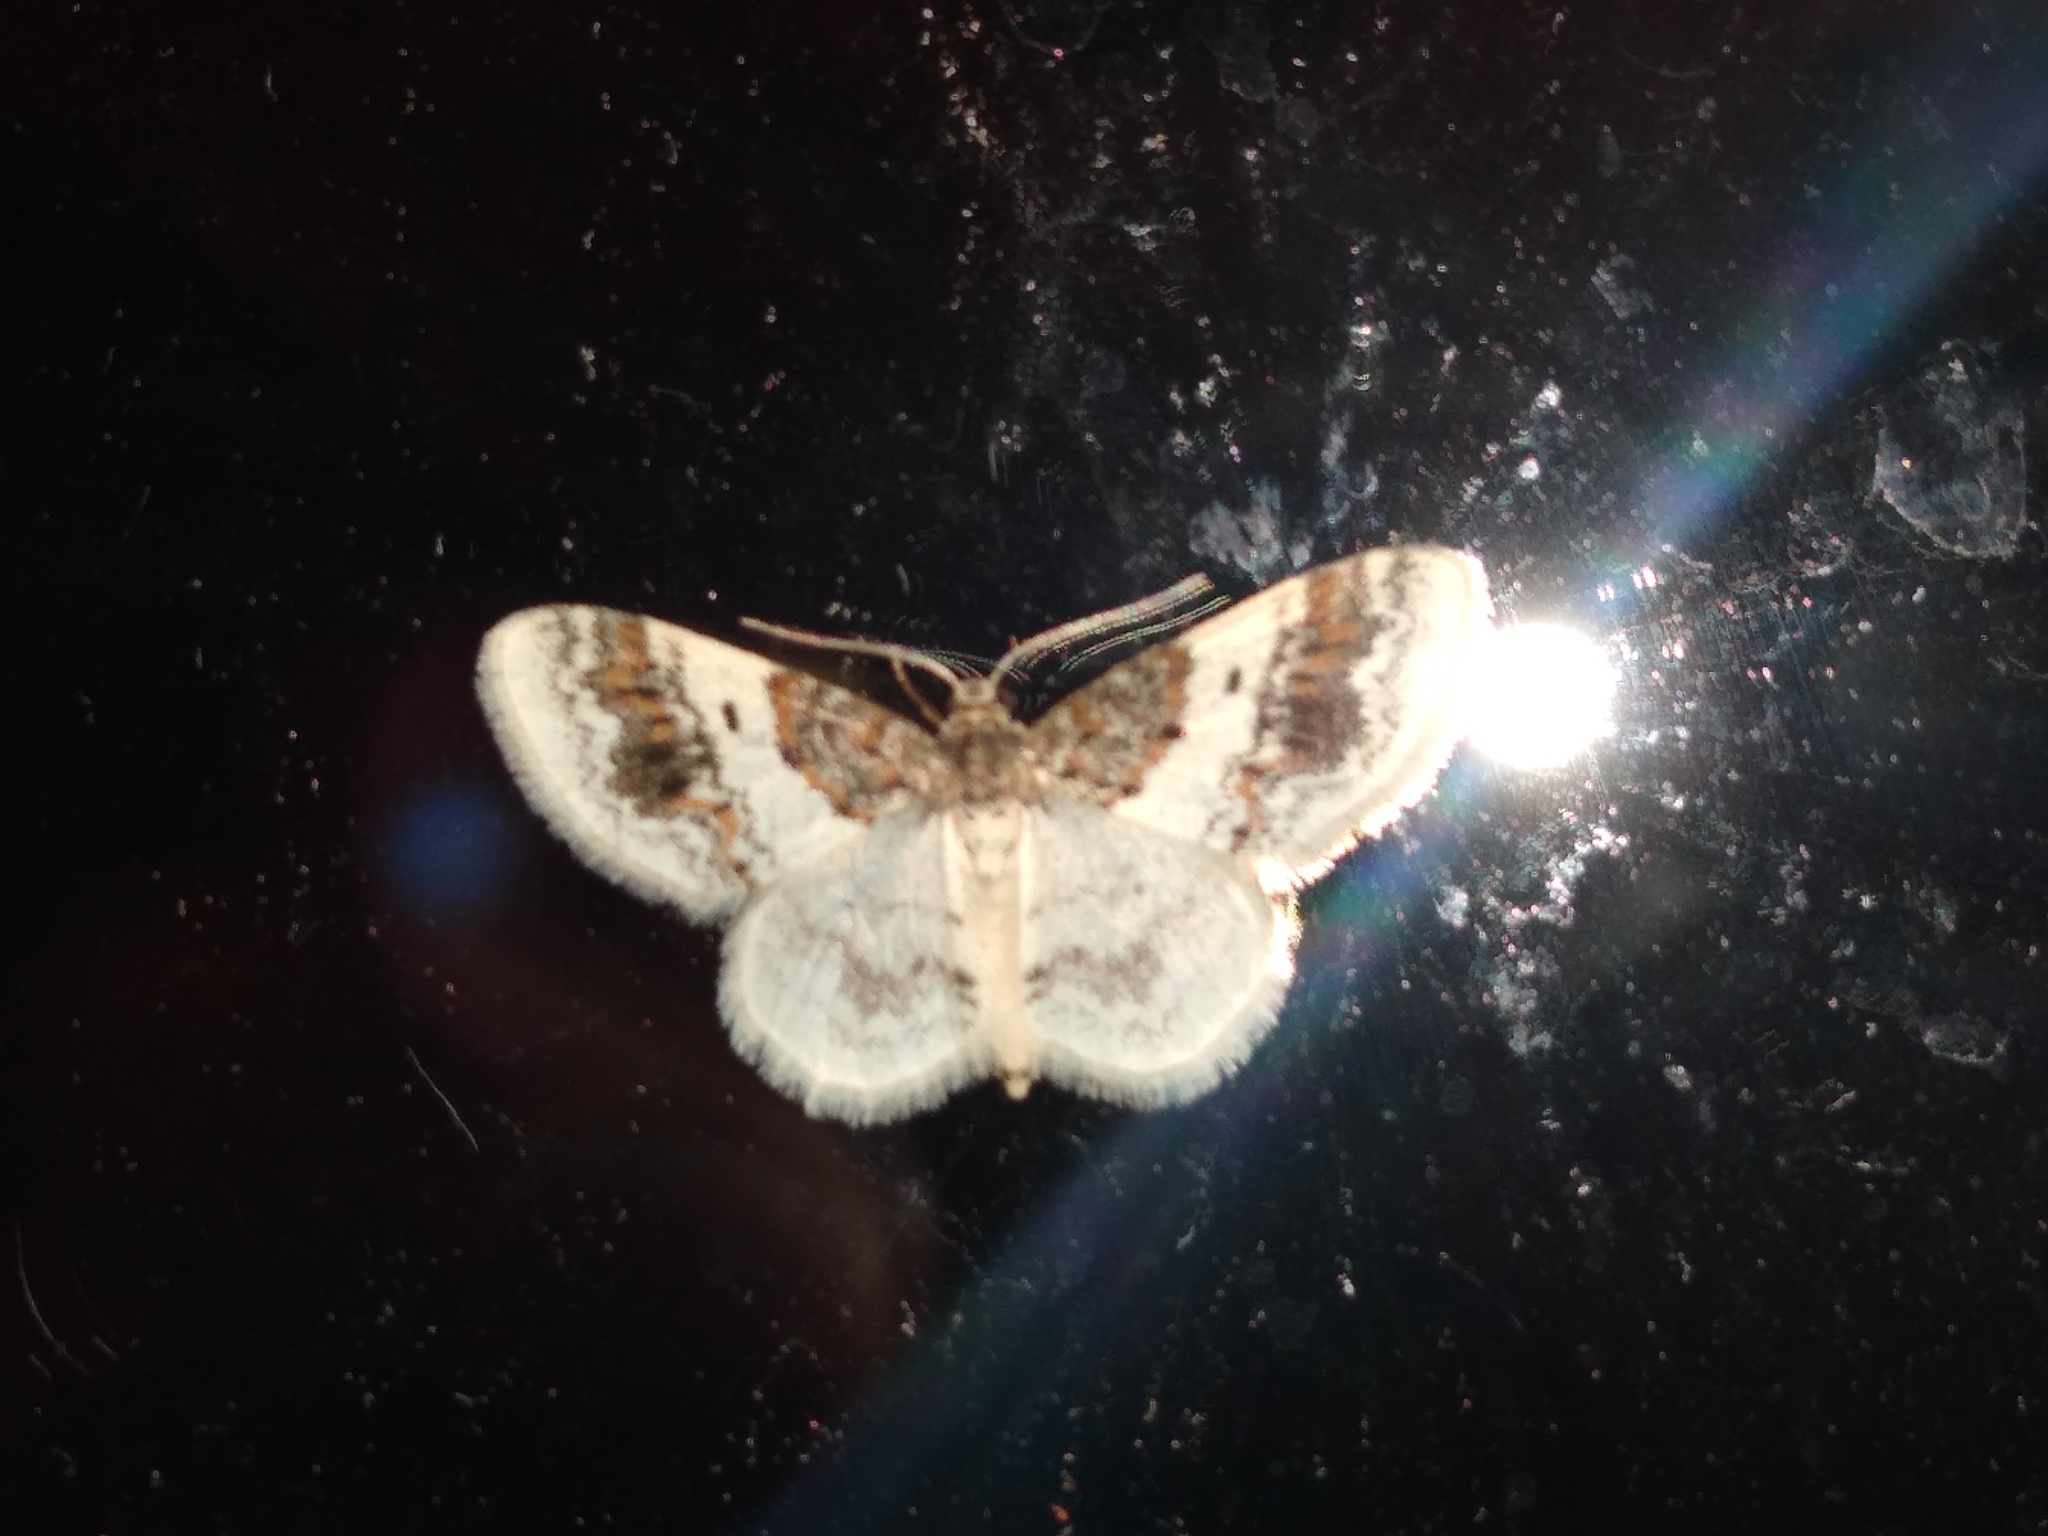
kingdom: Animalia
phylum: Arthropoda
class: Insecta
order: Lepidoptera
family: Geometridae
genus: Hydrelia
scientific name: Hydrelia condensata
